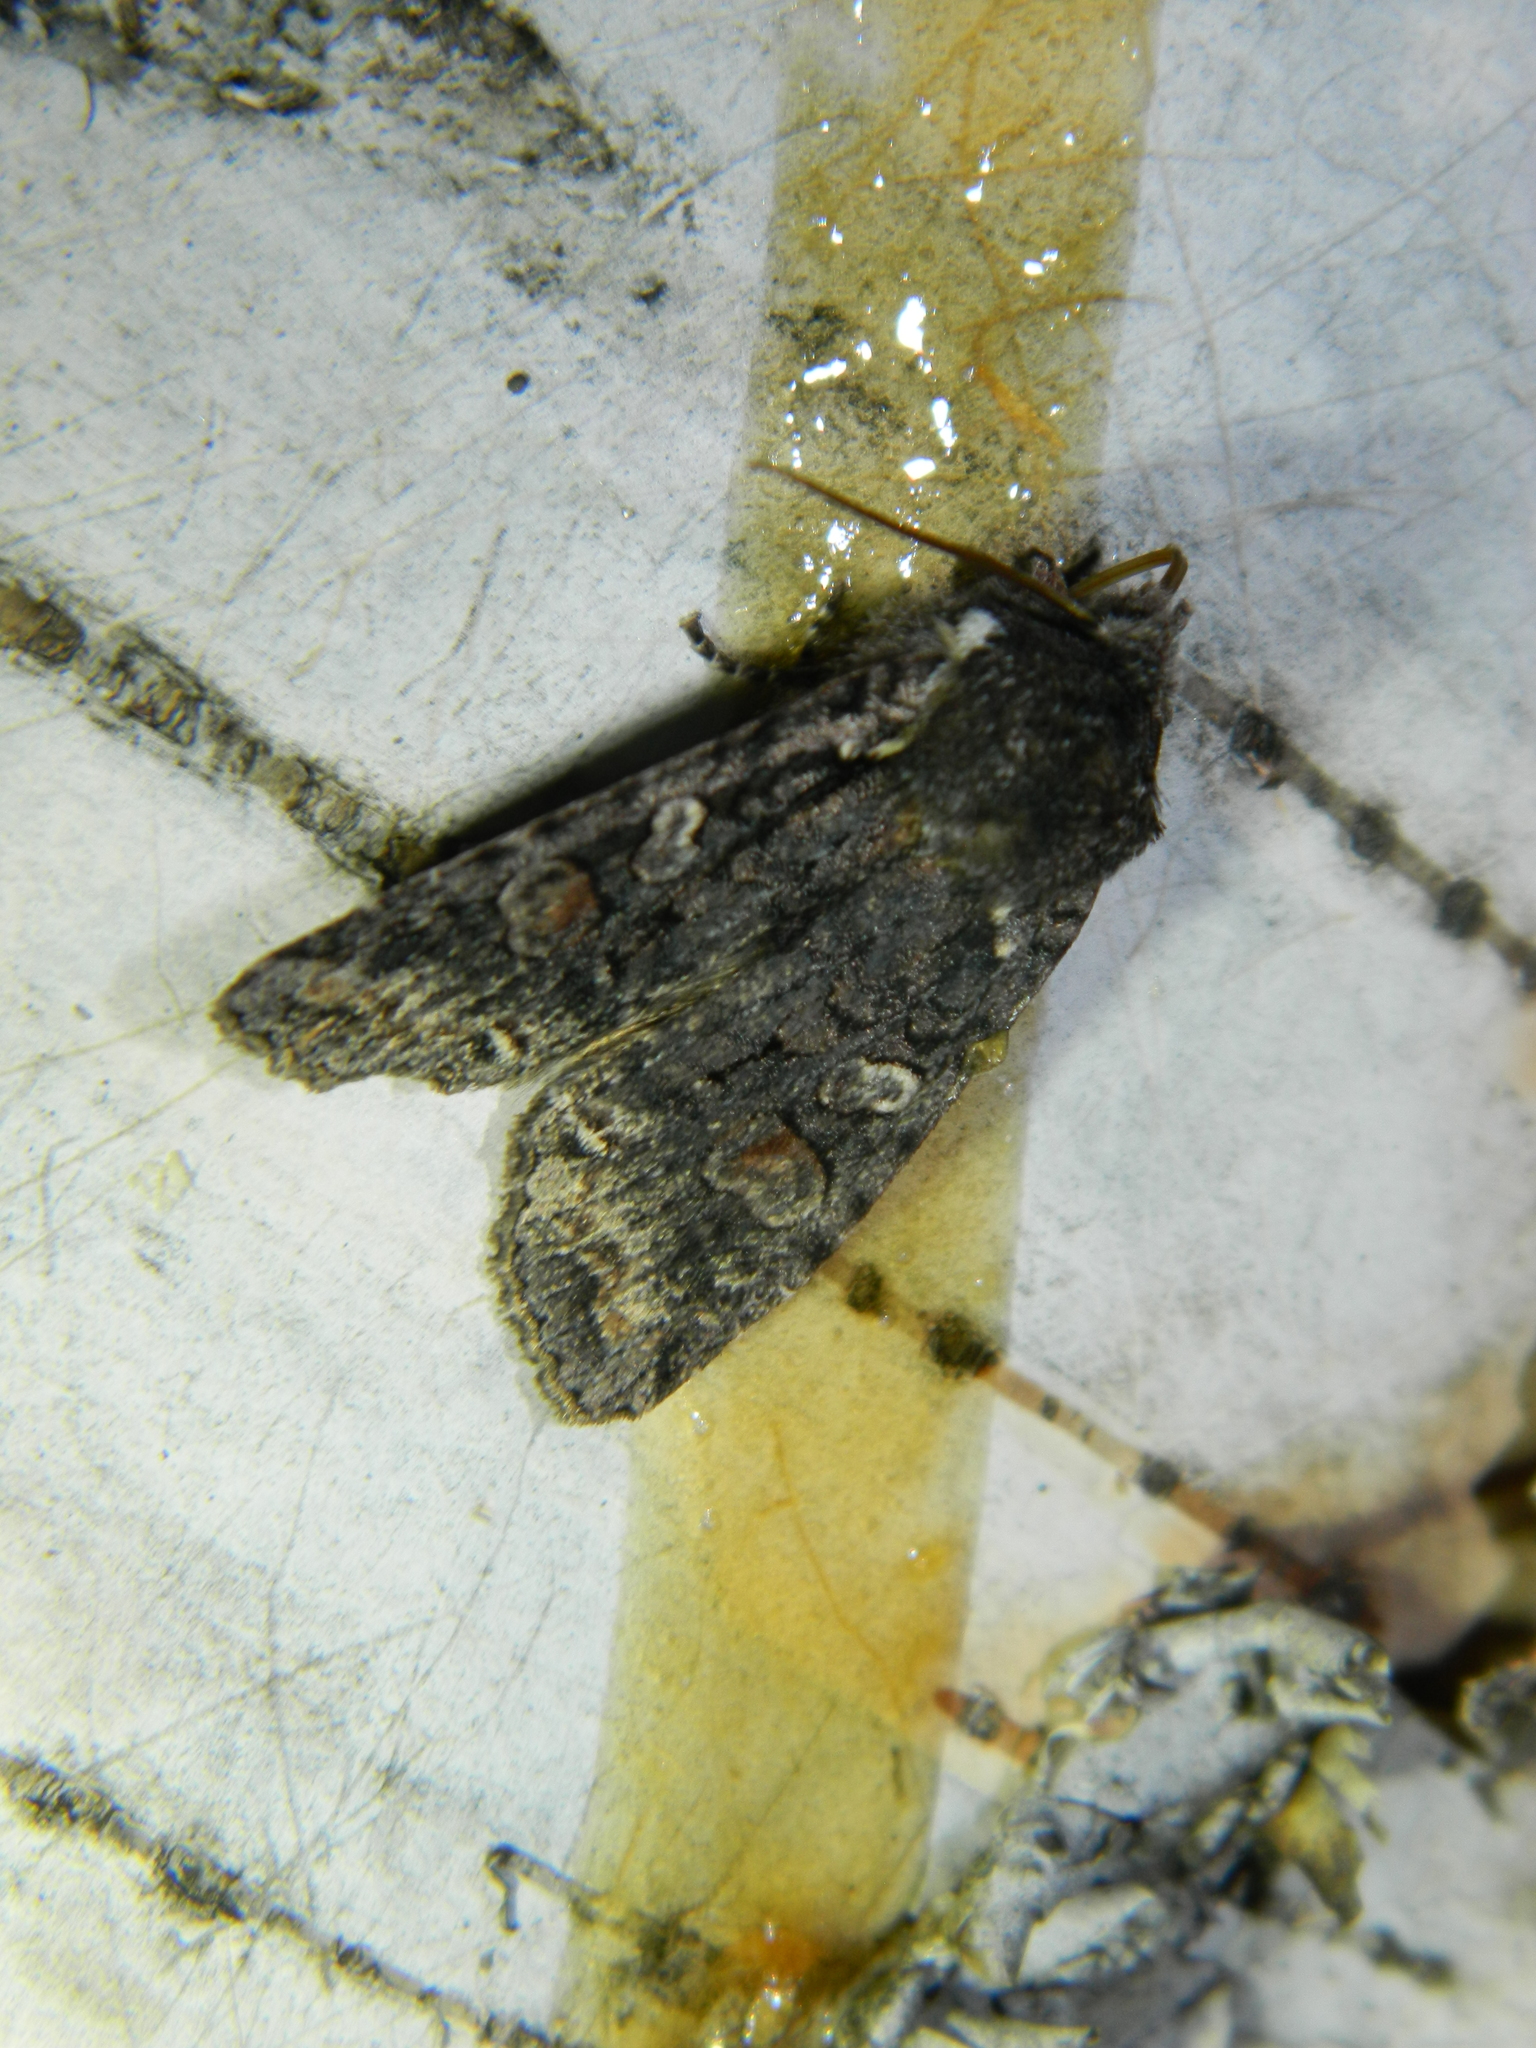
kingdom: Animalia
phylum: Arthropoda
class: Insecta
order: Lepidoptera
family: Noctuidae
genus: Lithophane
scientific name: Lithophane pexata
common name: Plush-naped pinion moth
